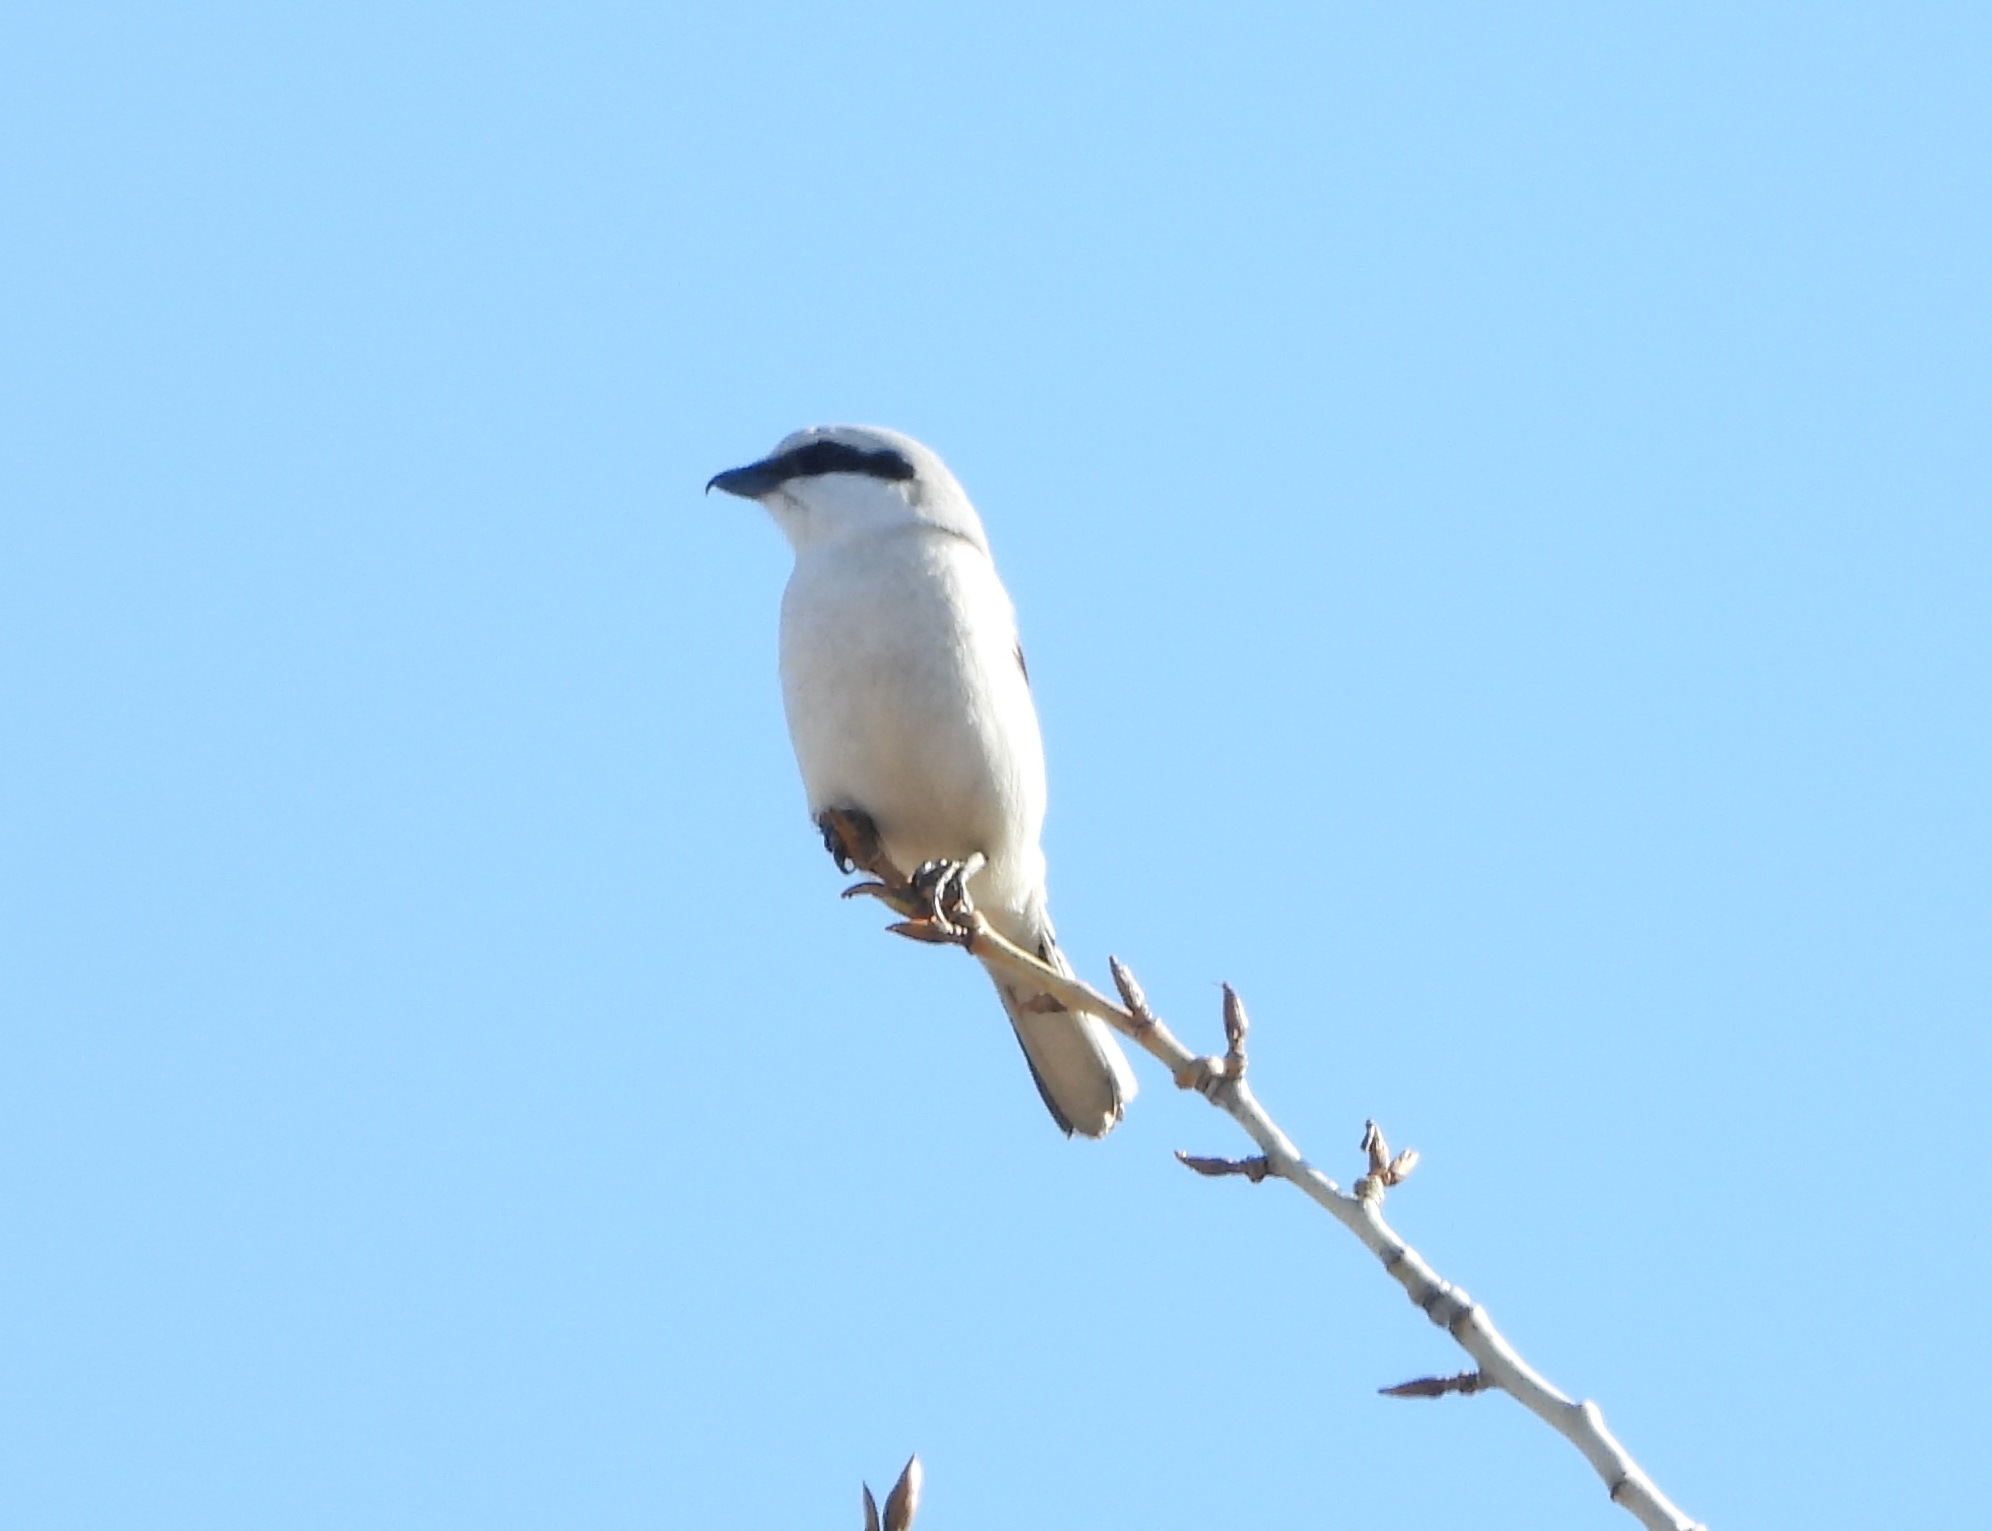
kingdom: Animalia
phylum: Chordata
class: Aves
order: Passeriformes
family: Laniidae
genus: Lanius
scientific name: Lanius excubitor
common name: Great grey shrike
